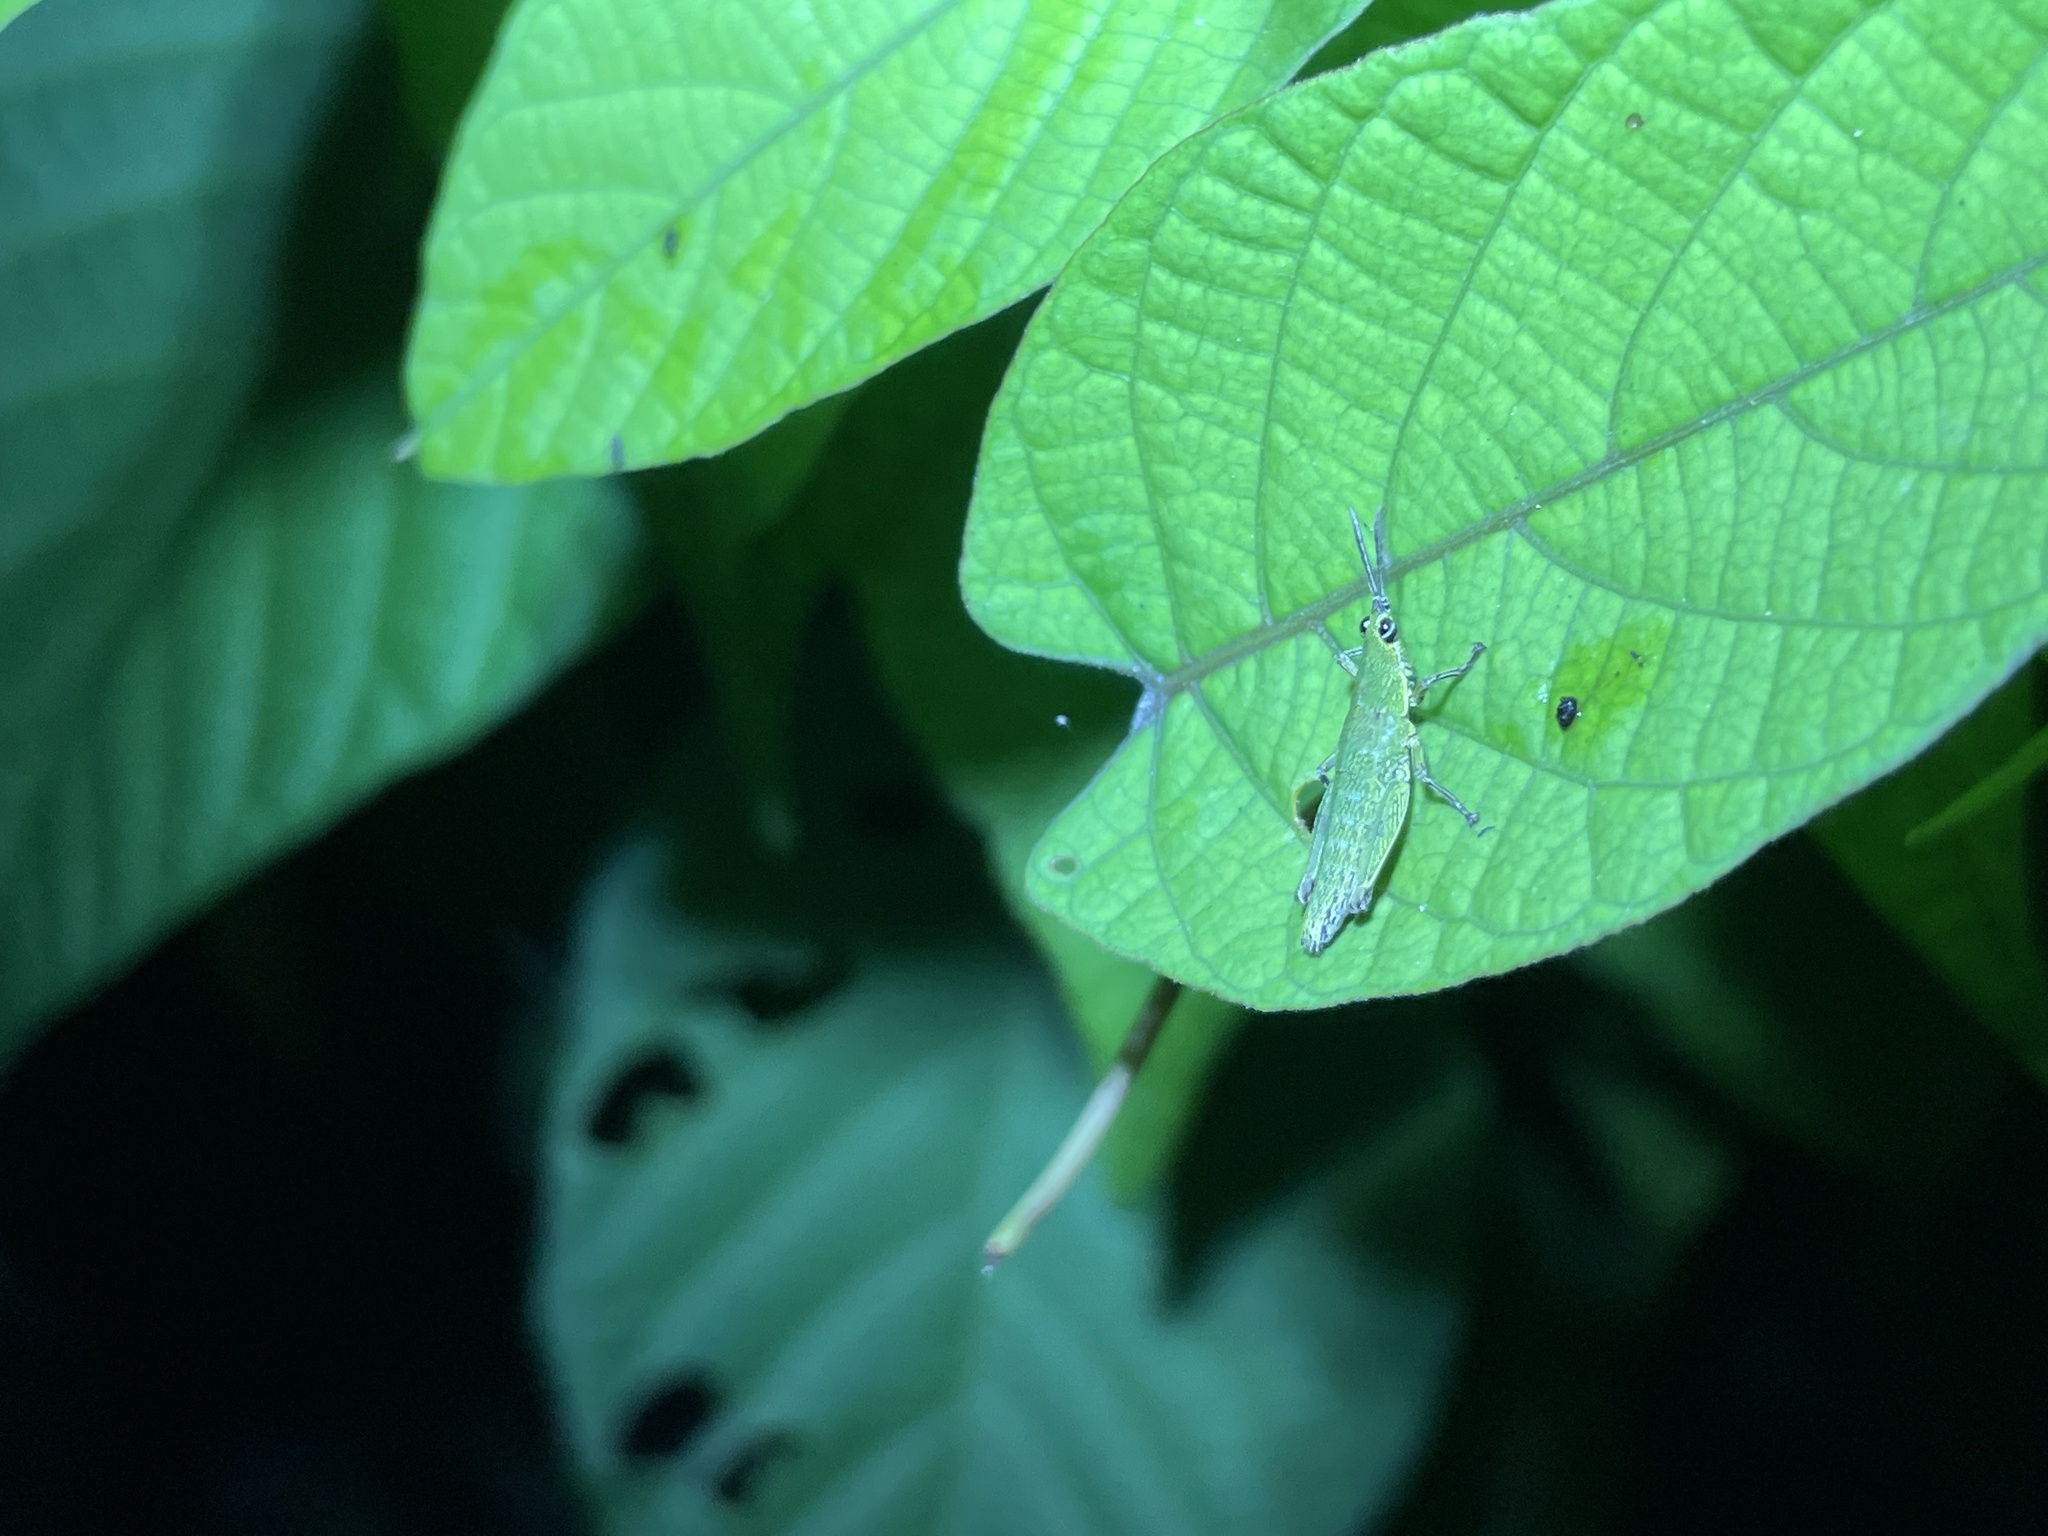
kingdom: Animalia
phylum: Arthropoda
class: Insecta
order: Orthoptera
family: Pyrgomorphidae
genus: Tagasta
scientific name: Tagasta tonkinensis
